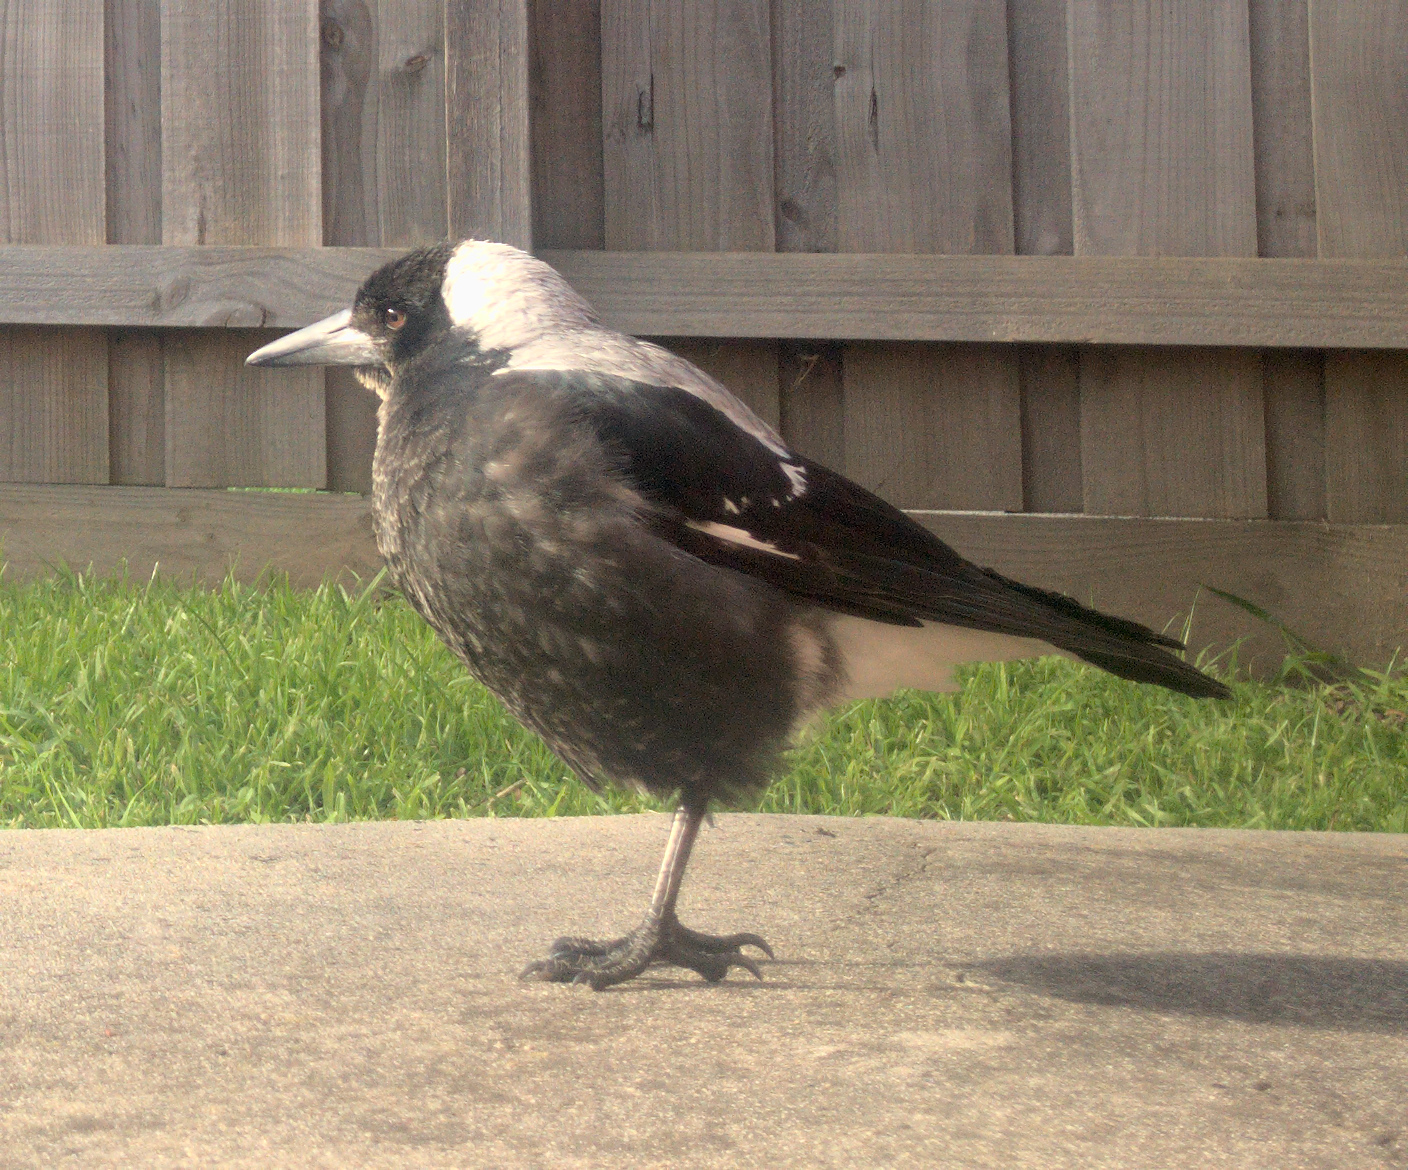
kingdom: Animalia
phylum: Chordata
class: Aves
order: Passeriformes
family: Cracticidae
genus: Gymnorhina
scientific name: Gymnorhina tibicen
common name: Australian magpie
